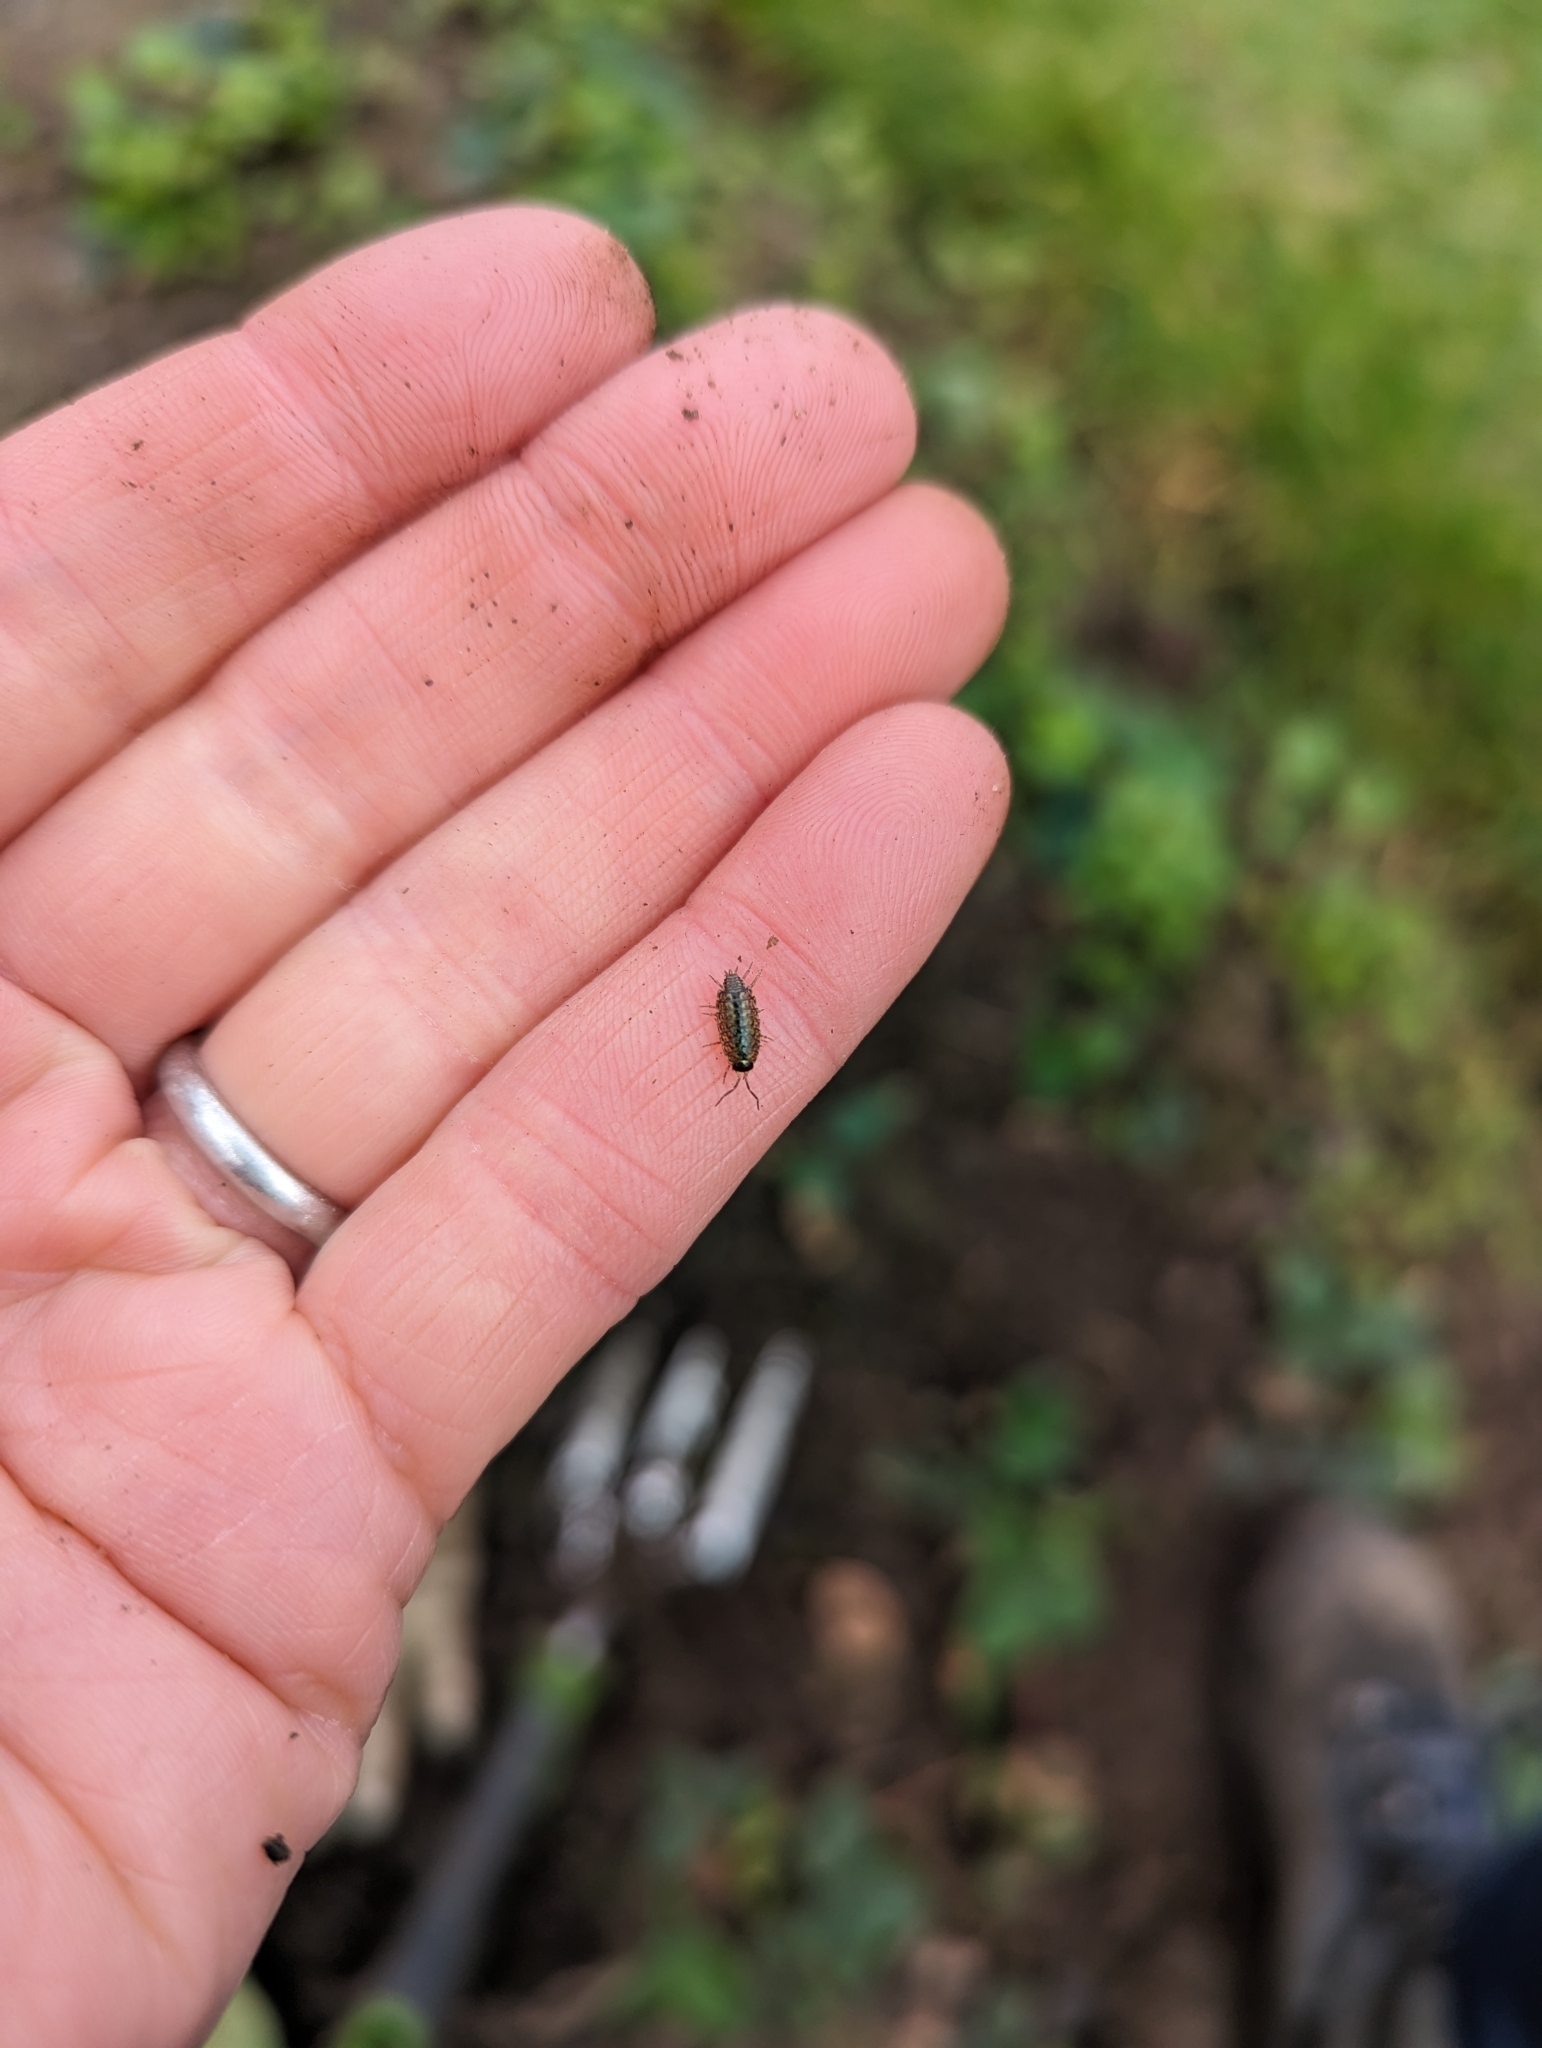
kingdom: Animalia
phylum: Arthropoda
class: Malacostraca
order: Isopoda
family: Philosciidae
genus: Philoscia
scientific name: Philoscia muscorum
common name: Common striped woodlouse
